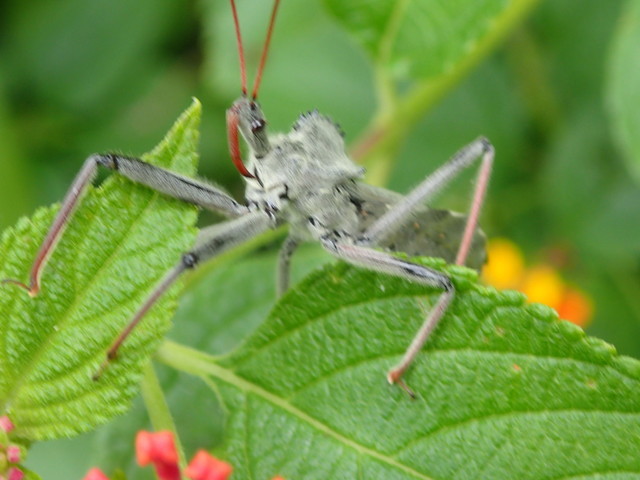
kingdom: Animalia
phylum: Arthropoda
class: Insecta
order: Hemiptera
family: Reduviidae
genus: Arilus
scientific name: Arilus cristatus
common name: North american wheel bug
